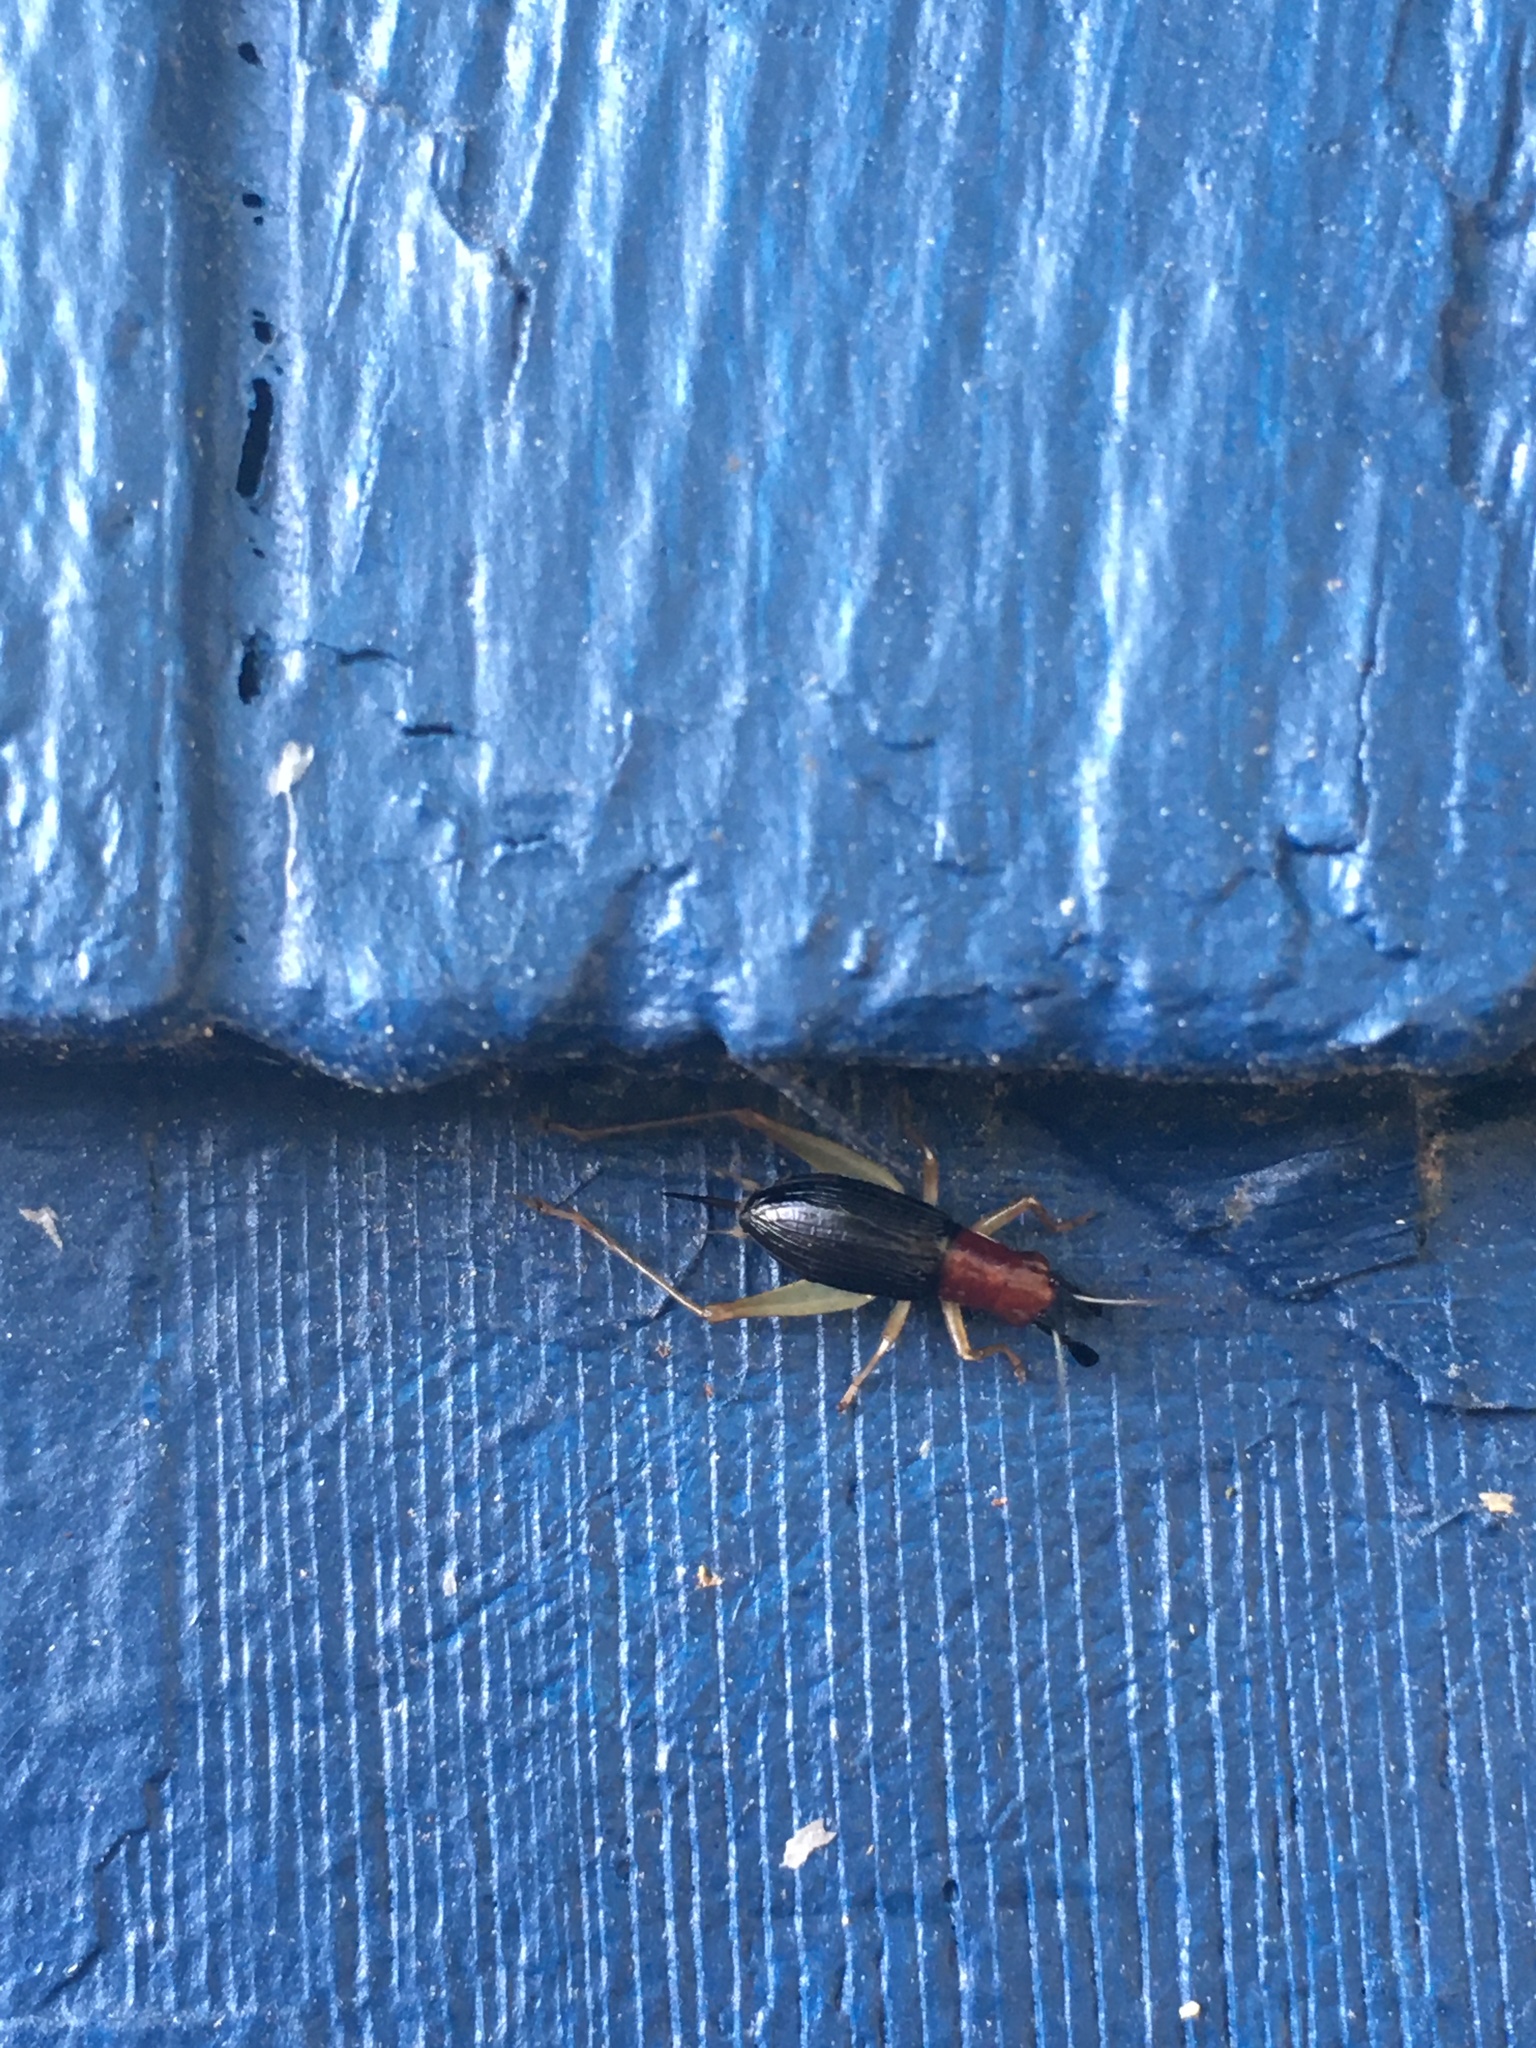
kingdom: Animalia
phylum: Arthropoda
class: Insecta
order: Orthoptera
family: Trigonidiidae
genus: Phyllopalpus
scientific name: Phyllopalpus pulchellus
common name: Handsome trig
